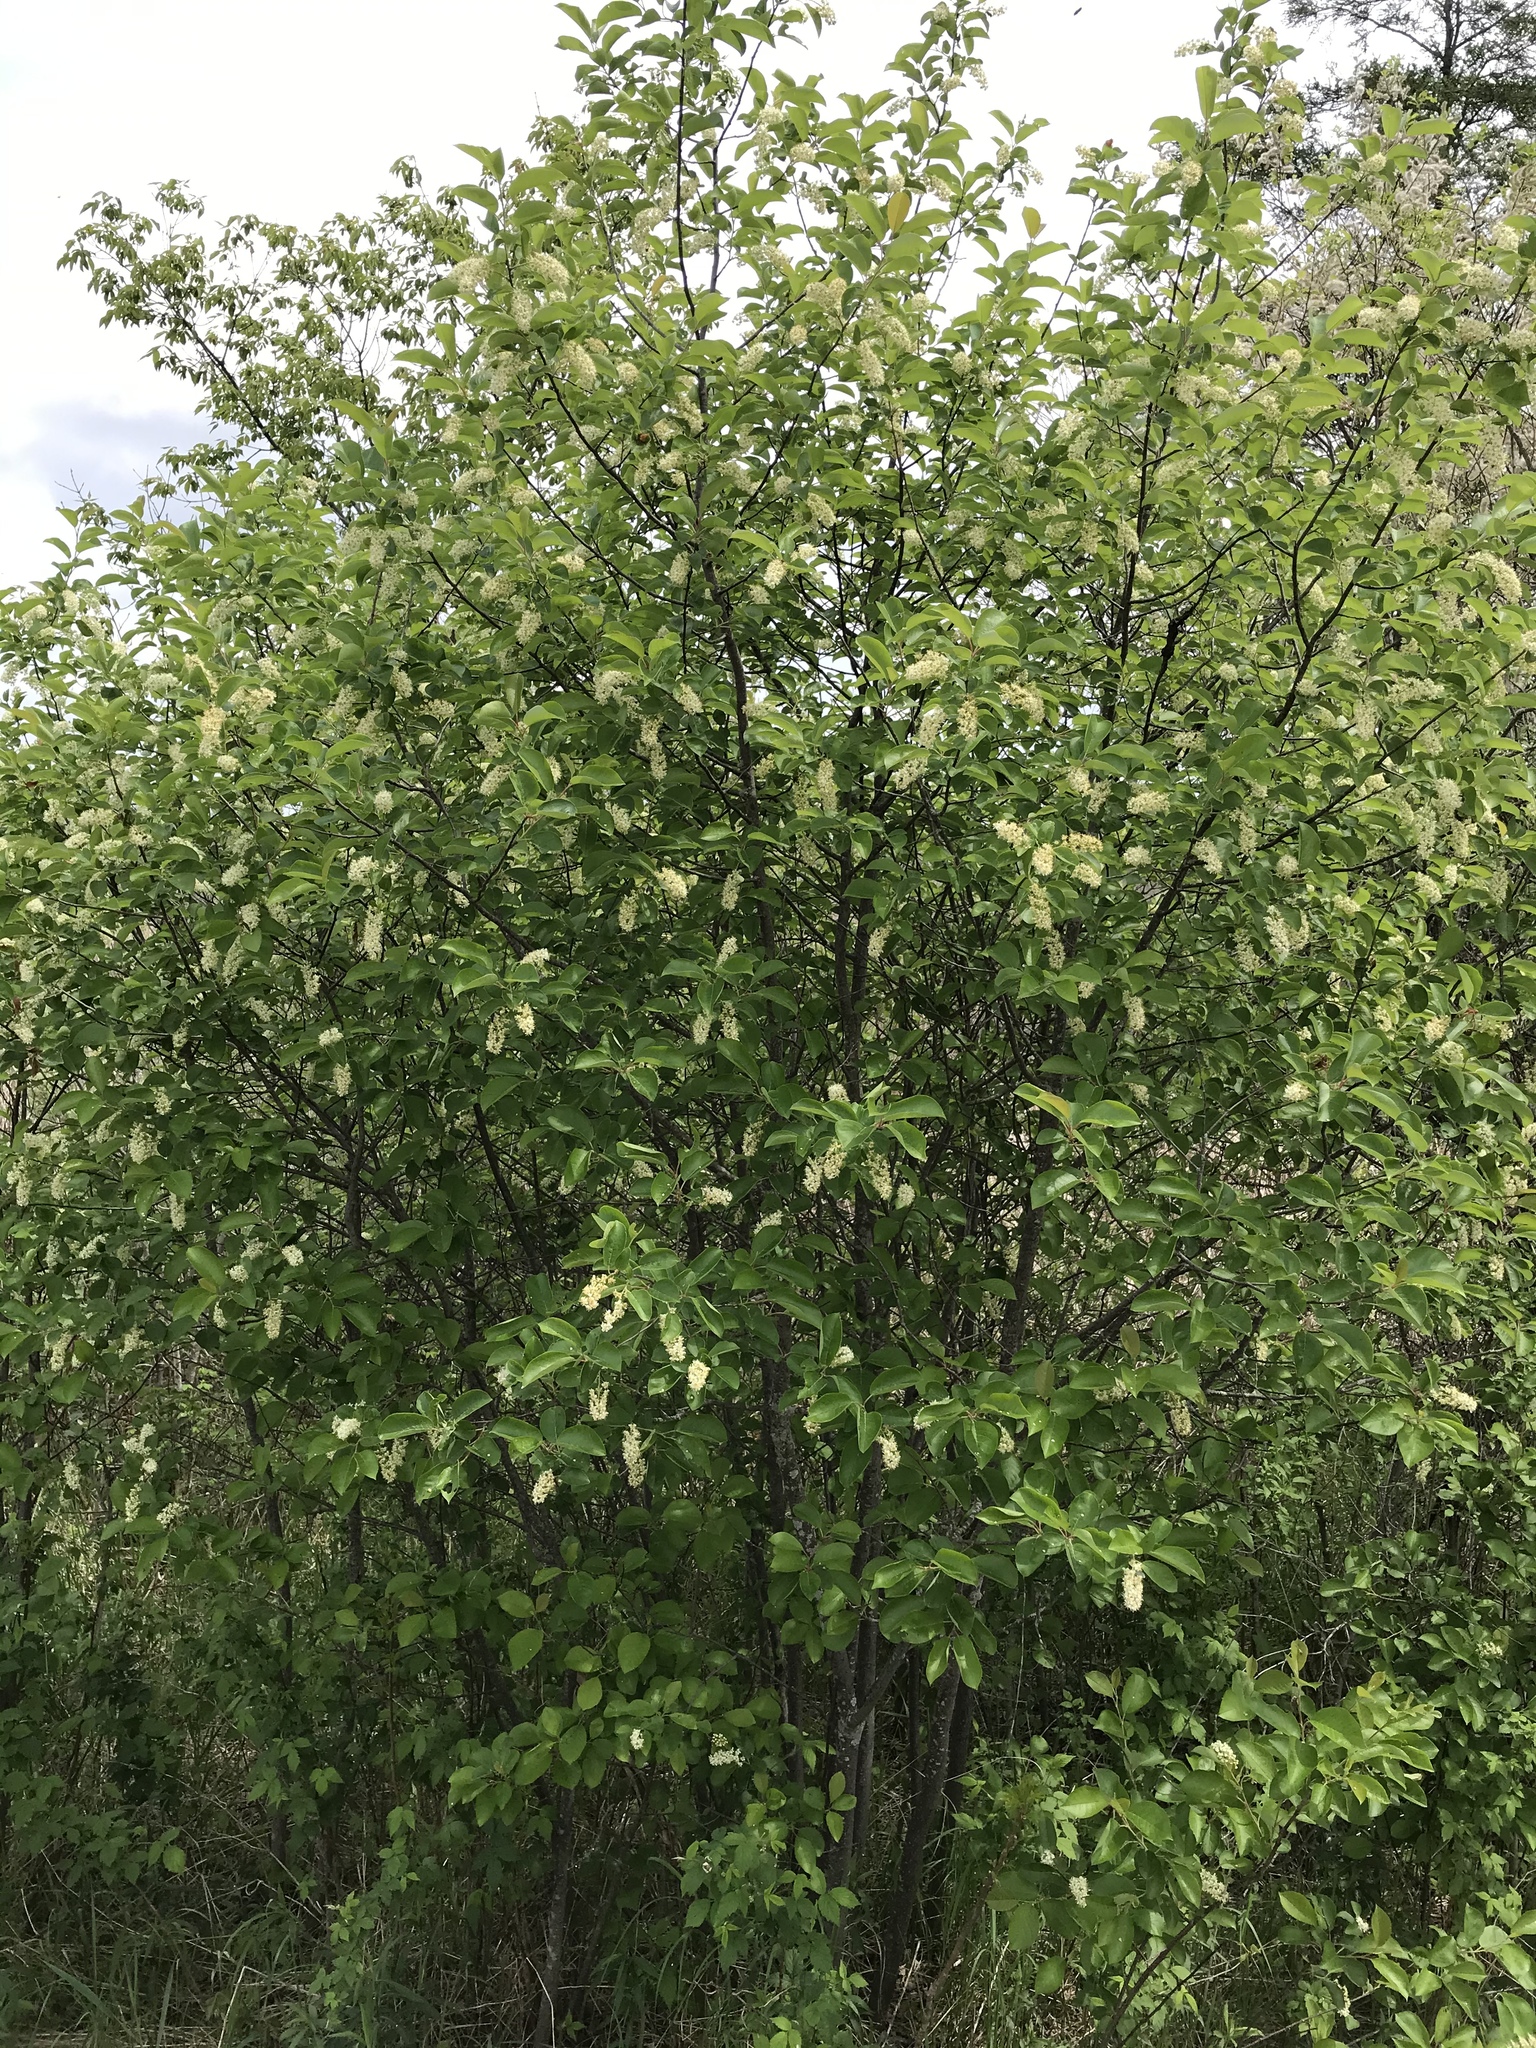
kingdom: Plantae
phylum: Tracheophyta
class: Magnoliopsida
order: Rosales
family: Rosaceae
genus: Prunus
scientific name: Prunus virginiana
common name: Chokecherry
